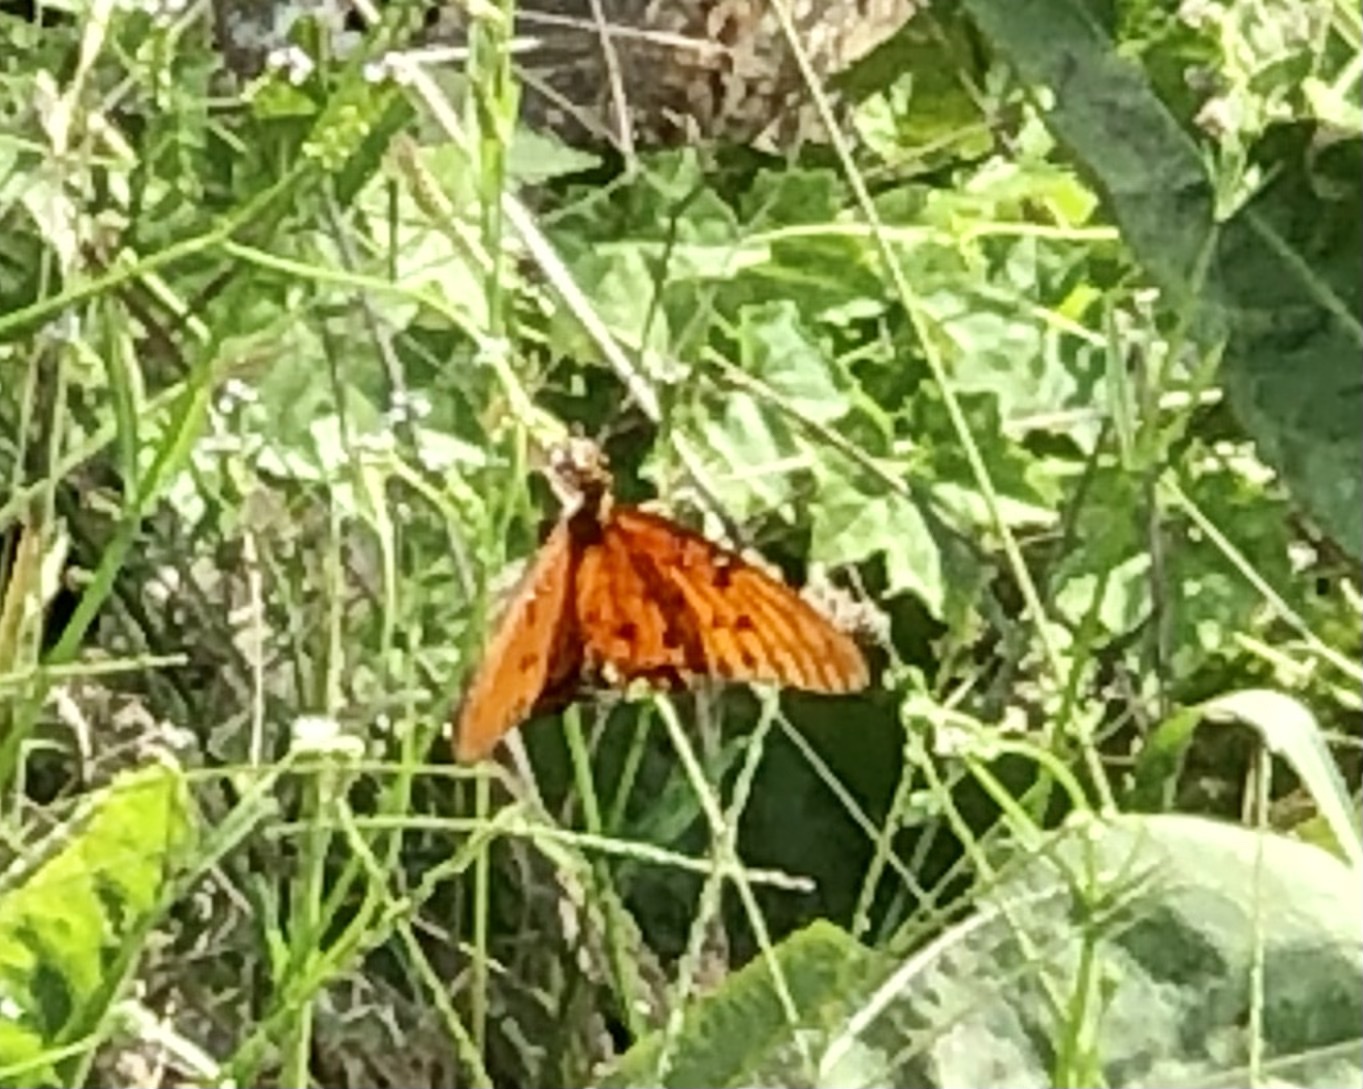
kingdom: Animalia
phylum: Arthropoda
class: Insecta
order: Lepidoptera
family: Nymphalidae
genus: Dione
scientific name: Dione vanillae
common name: Gulf fritillary
